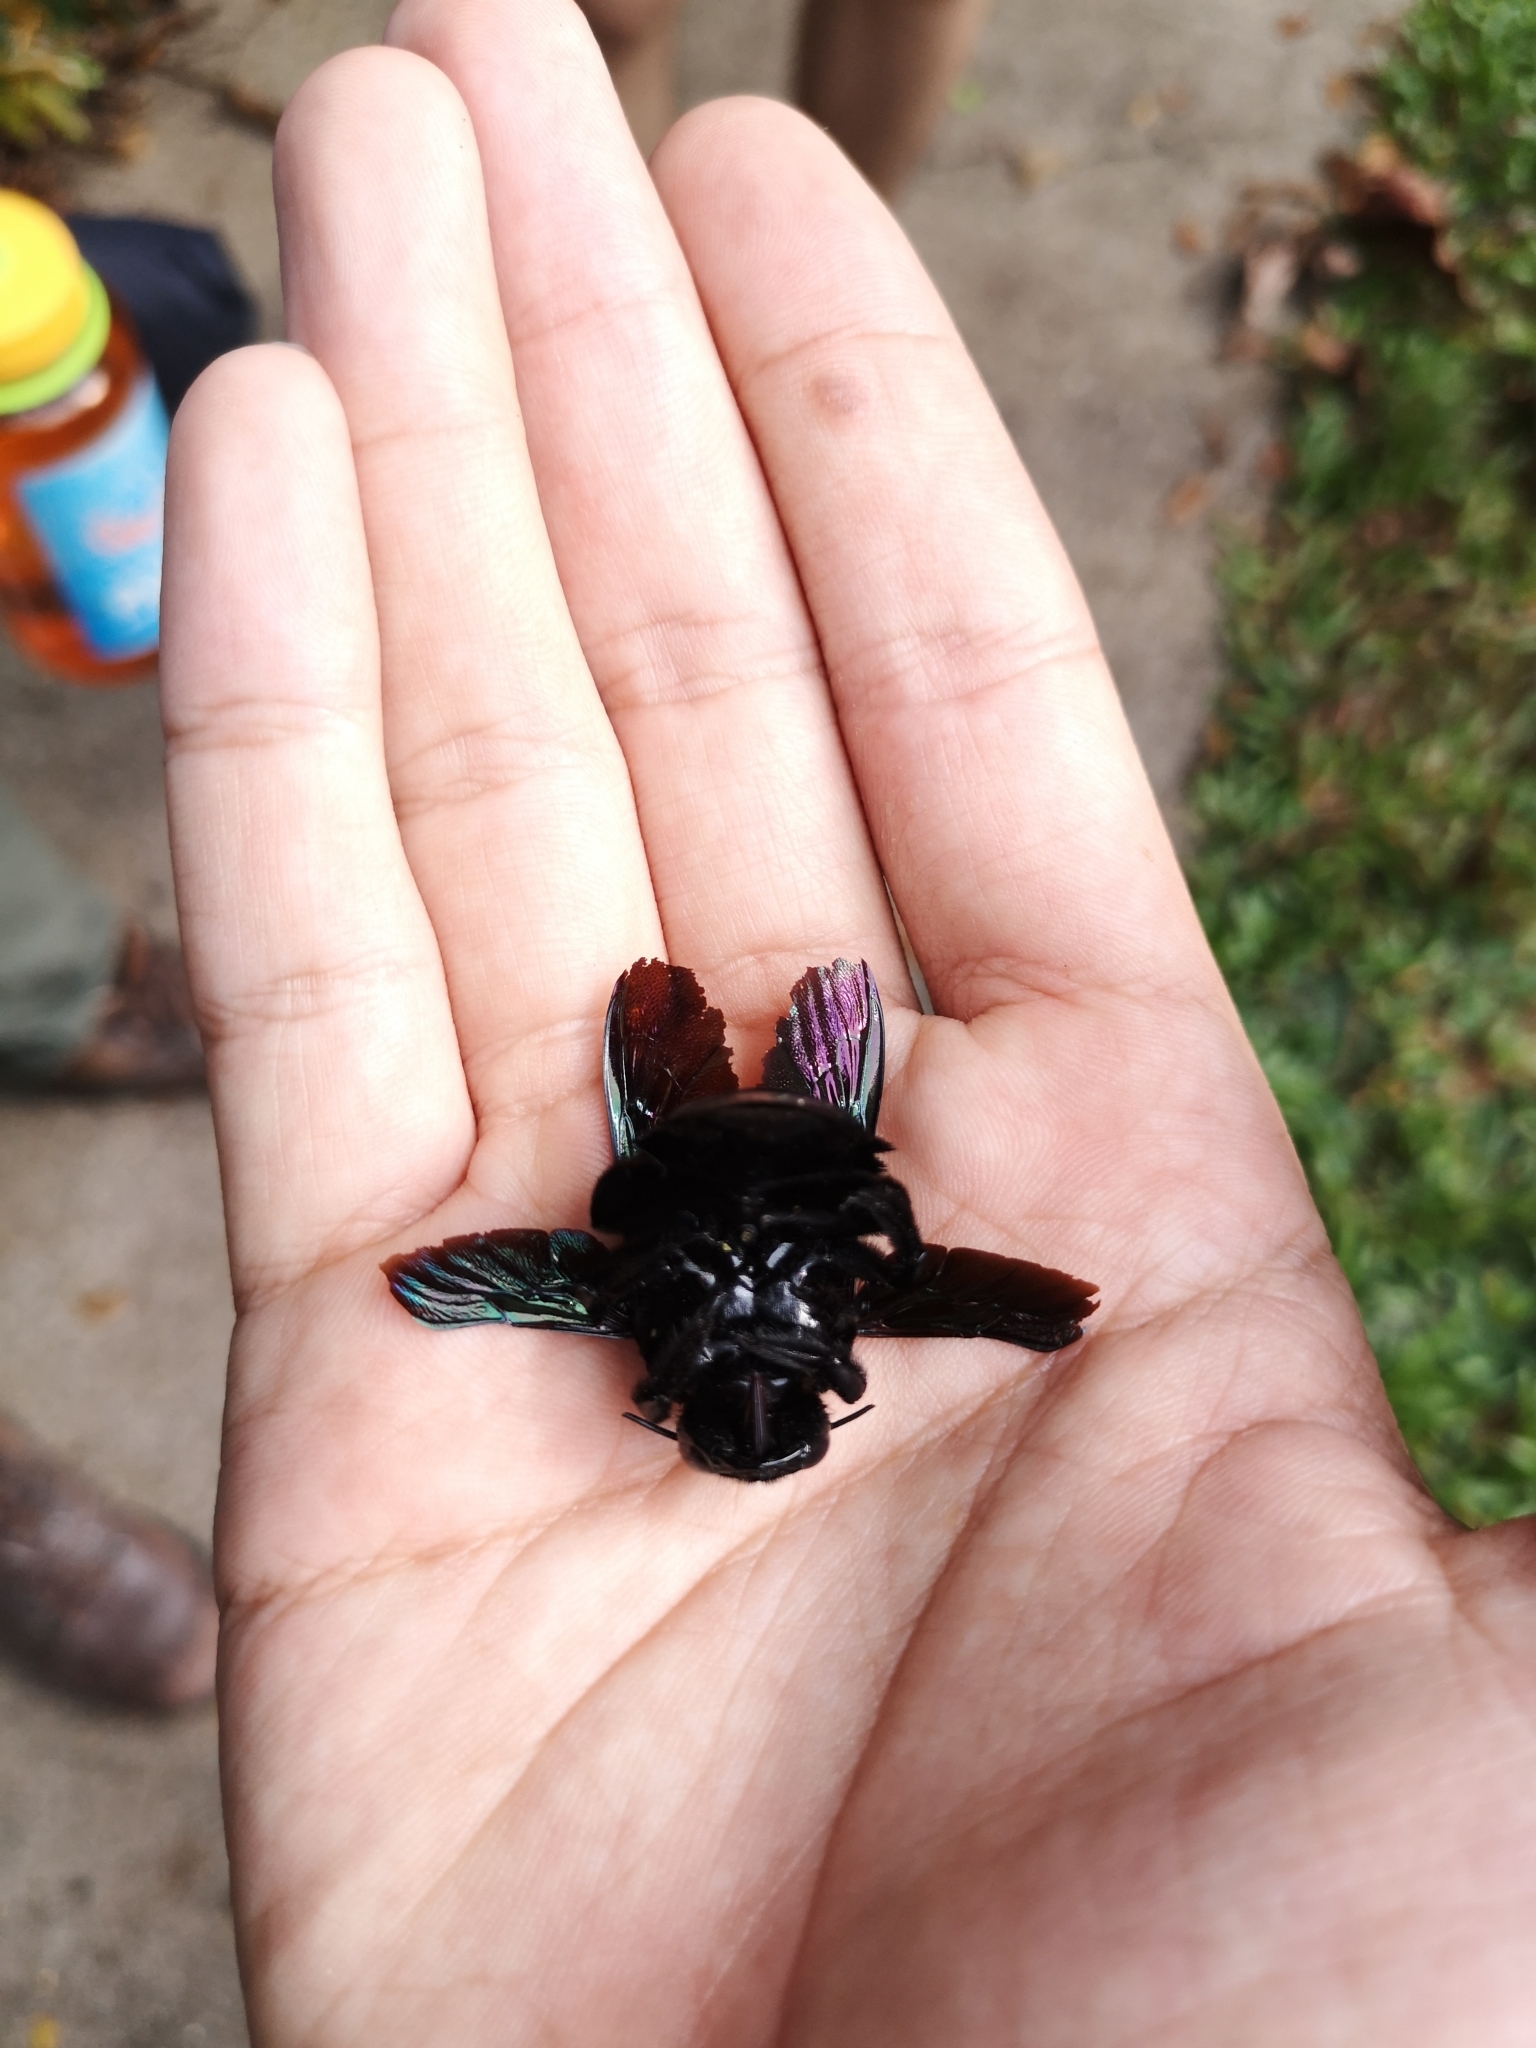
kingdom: Animalia
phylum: Arthropoda
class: Insecta
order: Hymenoptera
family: Apidae
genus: Xylocopa
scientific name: Xylocopa latipes
